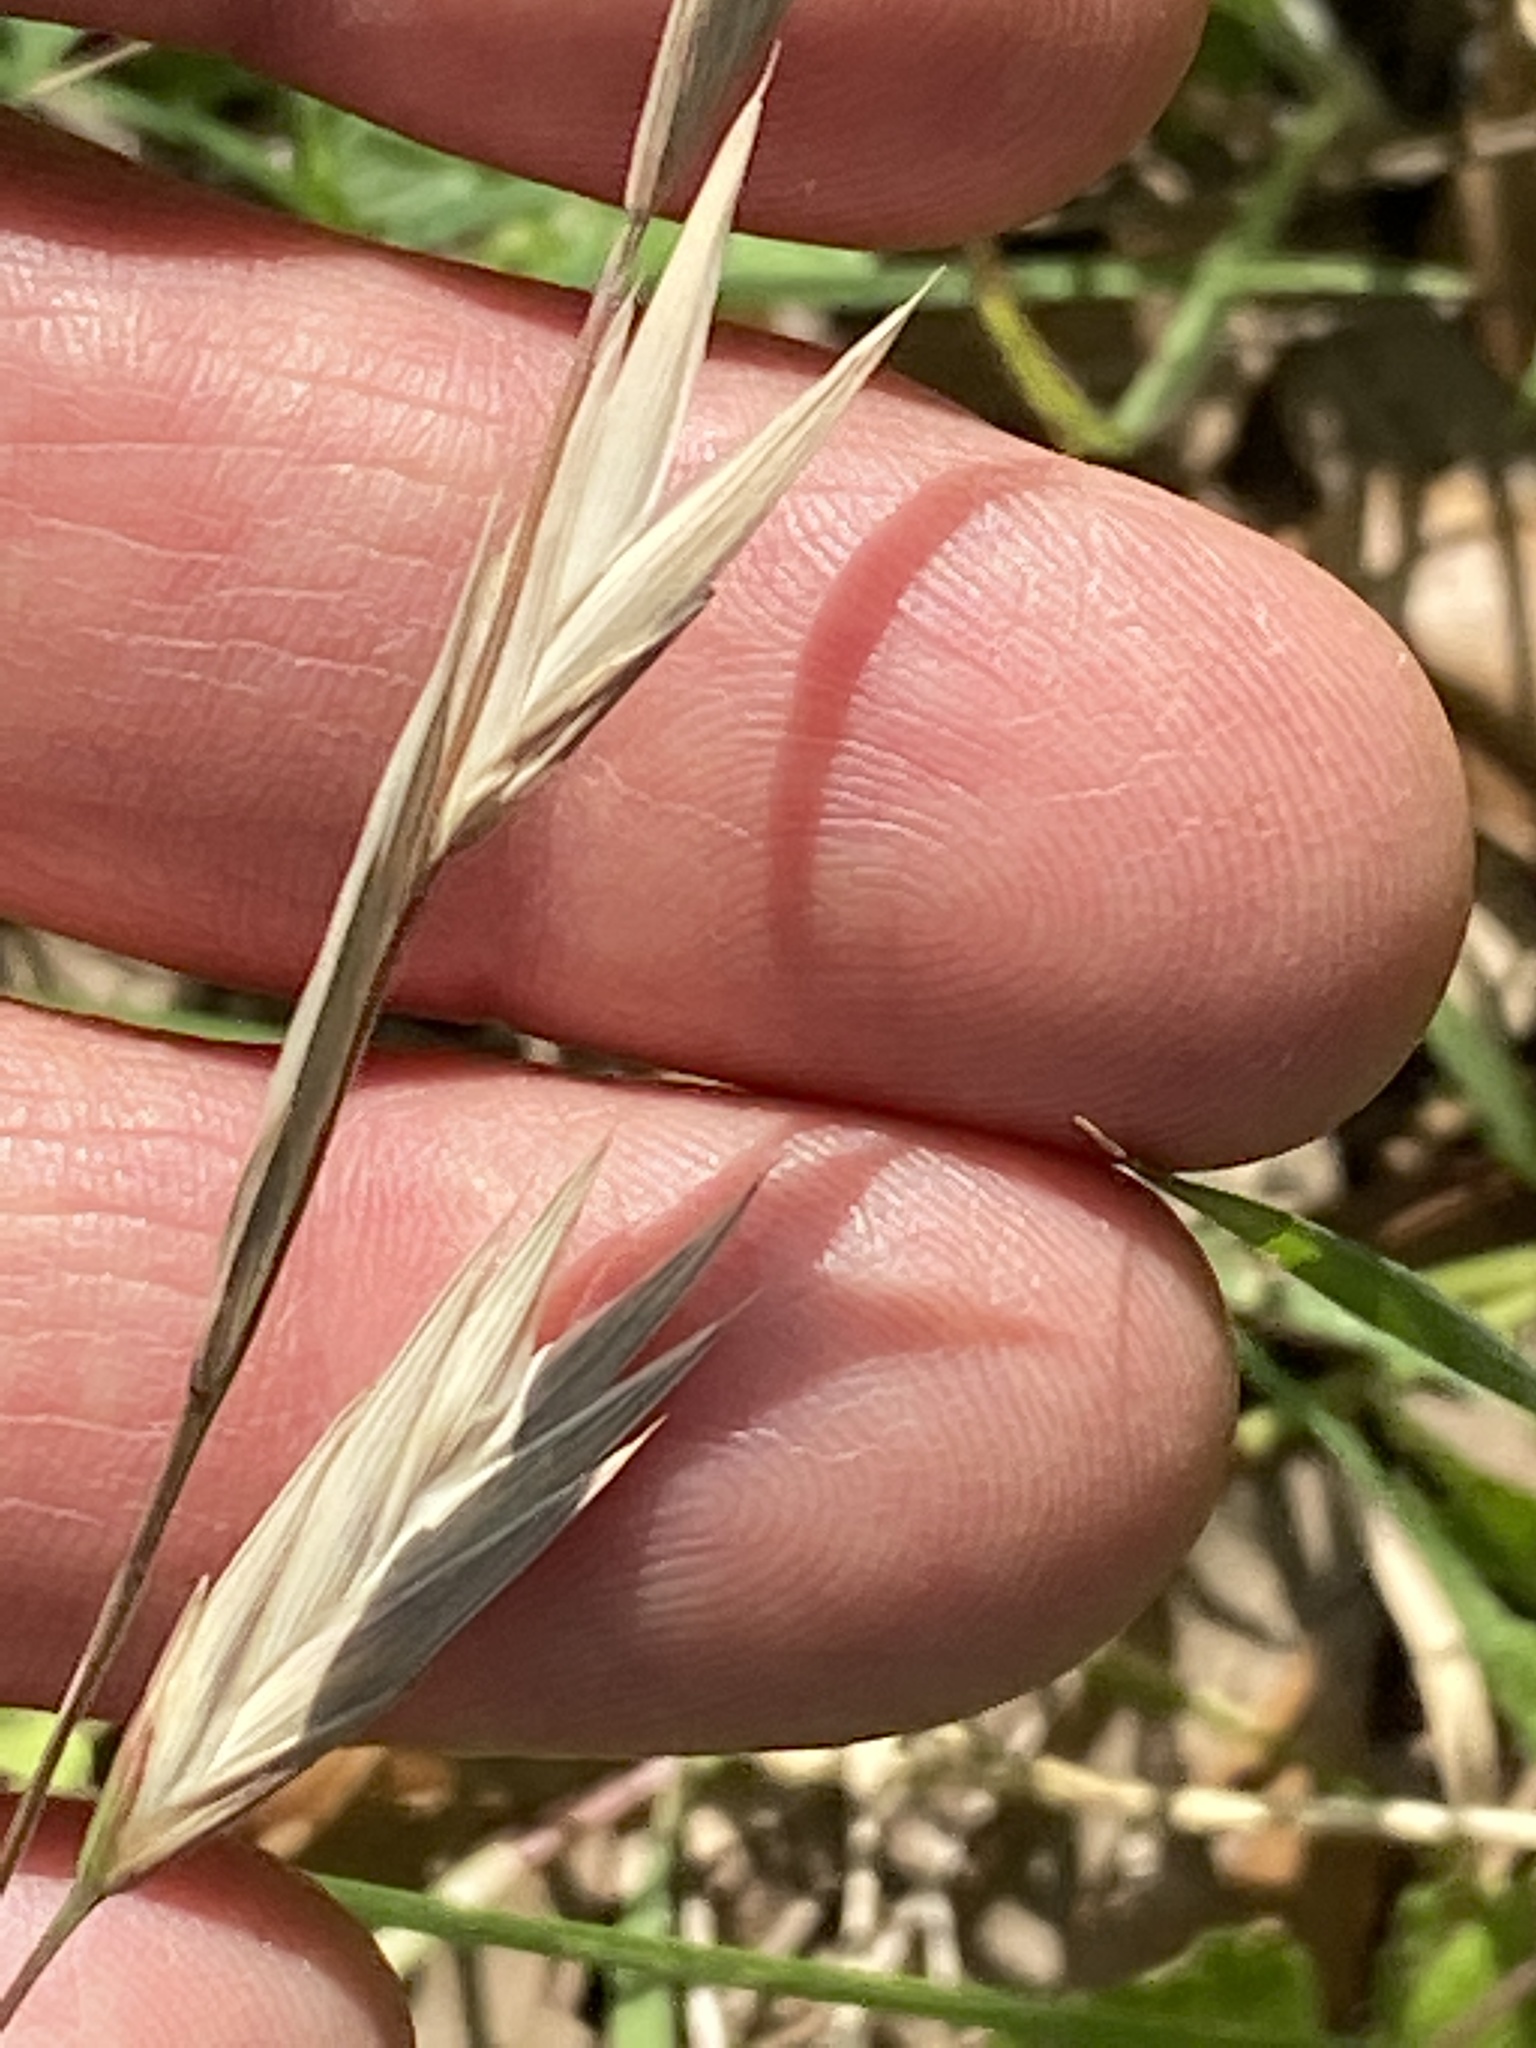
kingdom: Plantae
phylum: Tracheophyta
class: Liliopsida
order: Poales
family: Poaceae
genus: Bromus
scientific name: Bromus catharticus
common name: Rescuegrass
